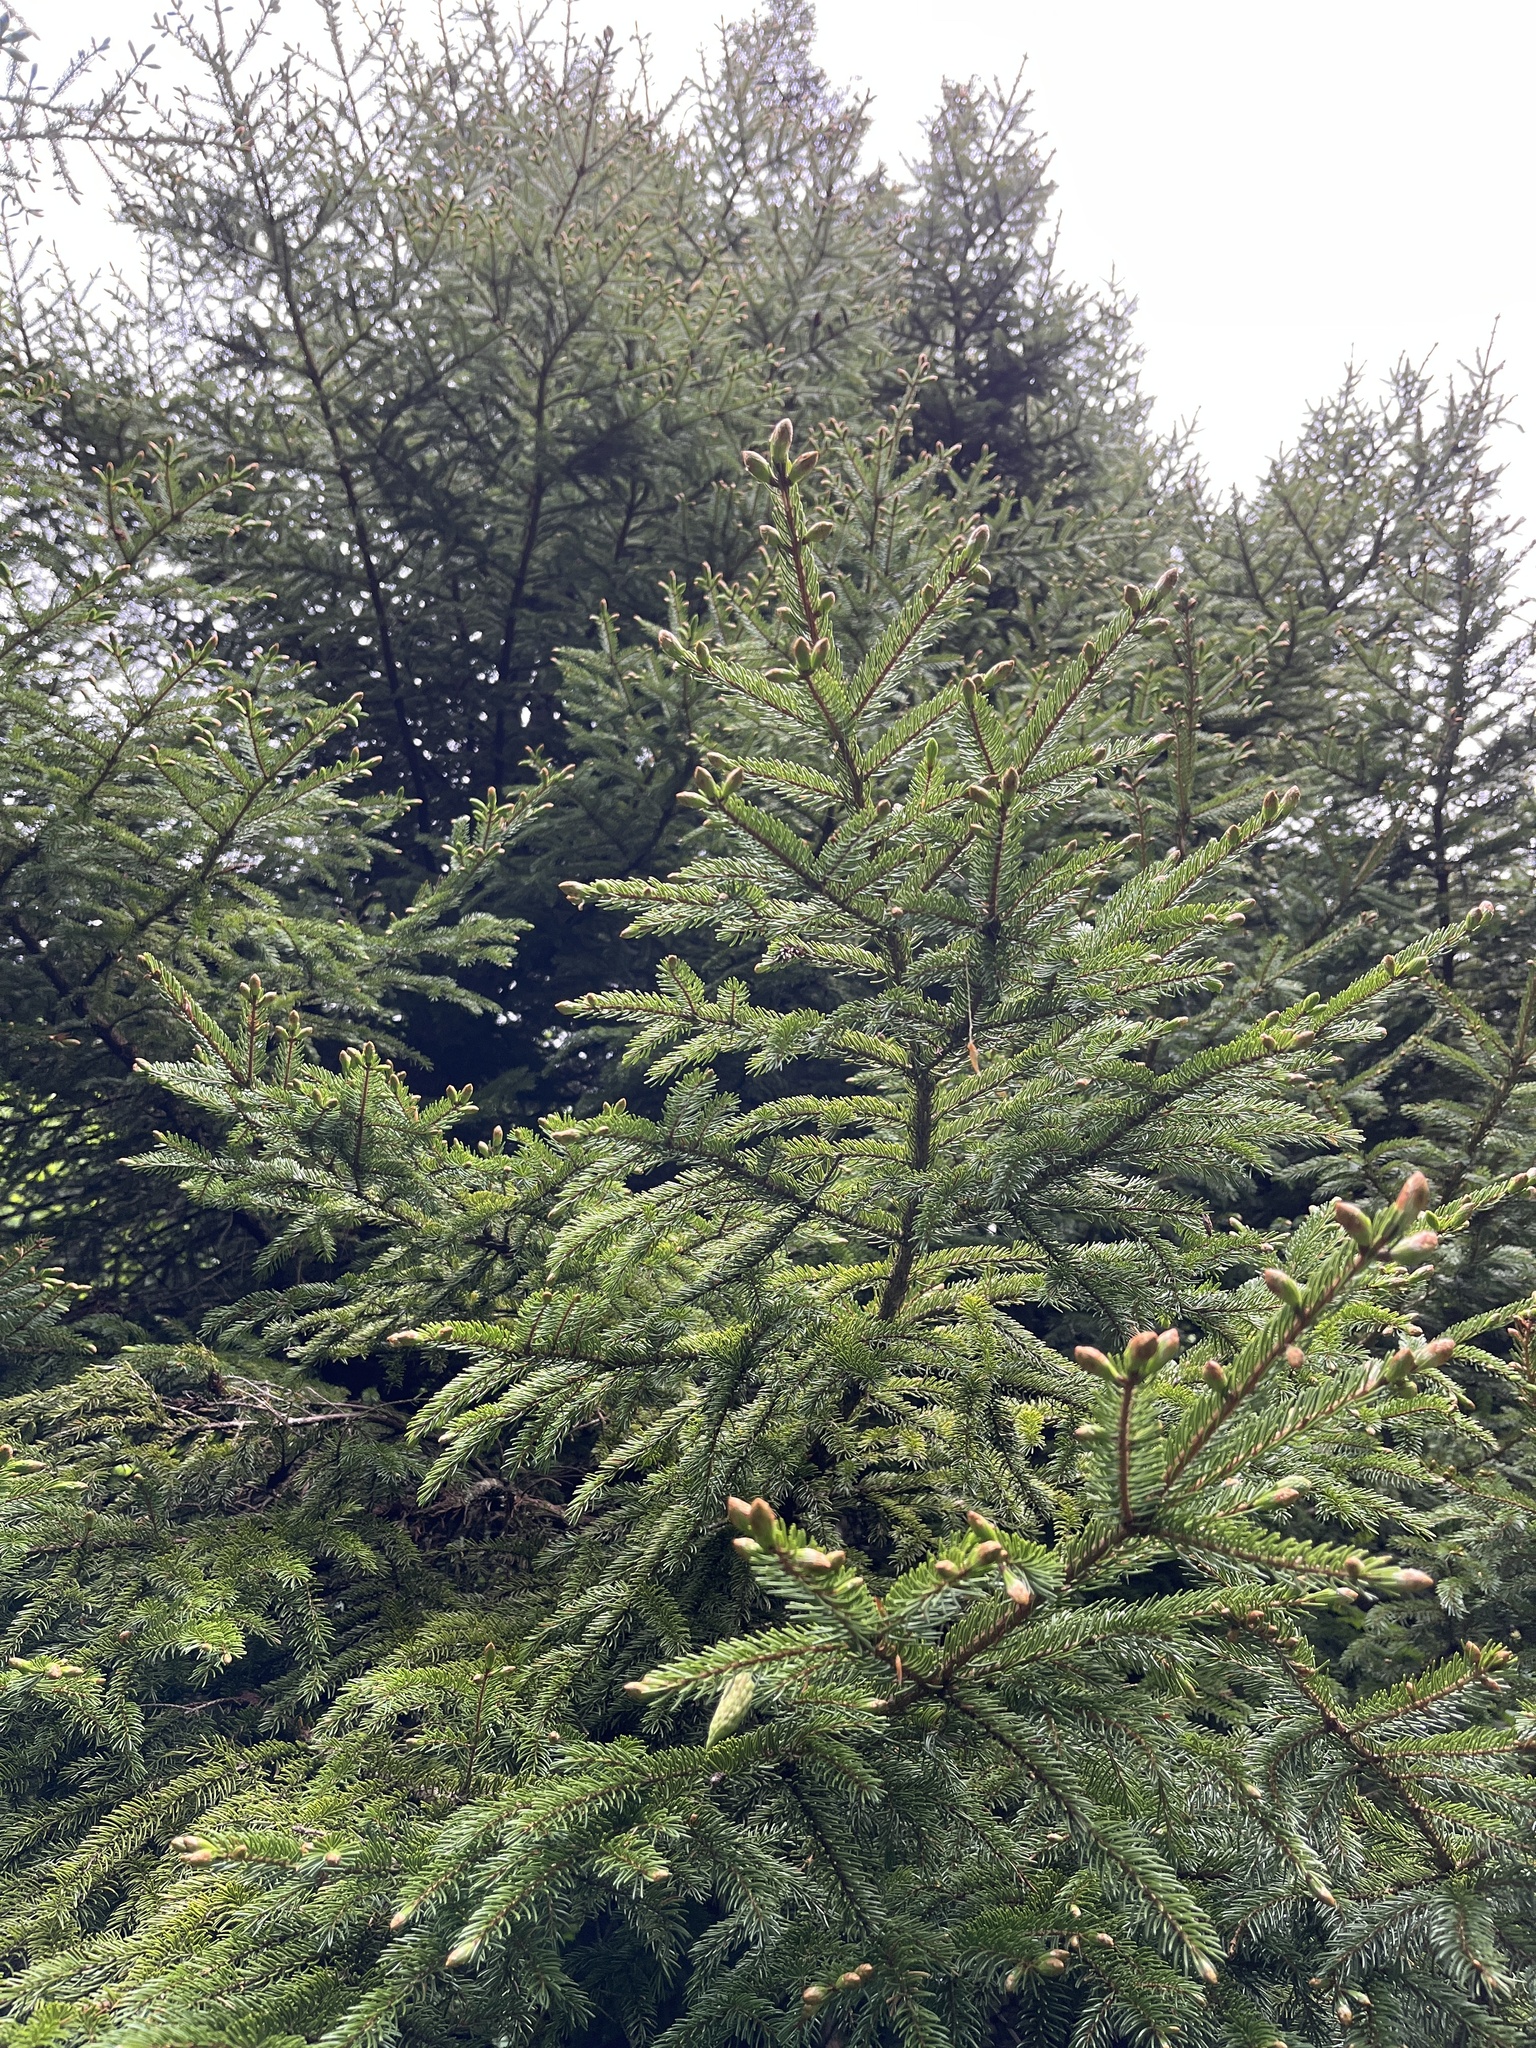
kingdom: Plantae
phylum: Tracheophyta
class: Pinopsida
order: Pinales
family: Pinaceae
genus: Picea
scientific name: Picea rubens
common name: Red spruce
